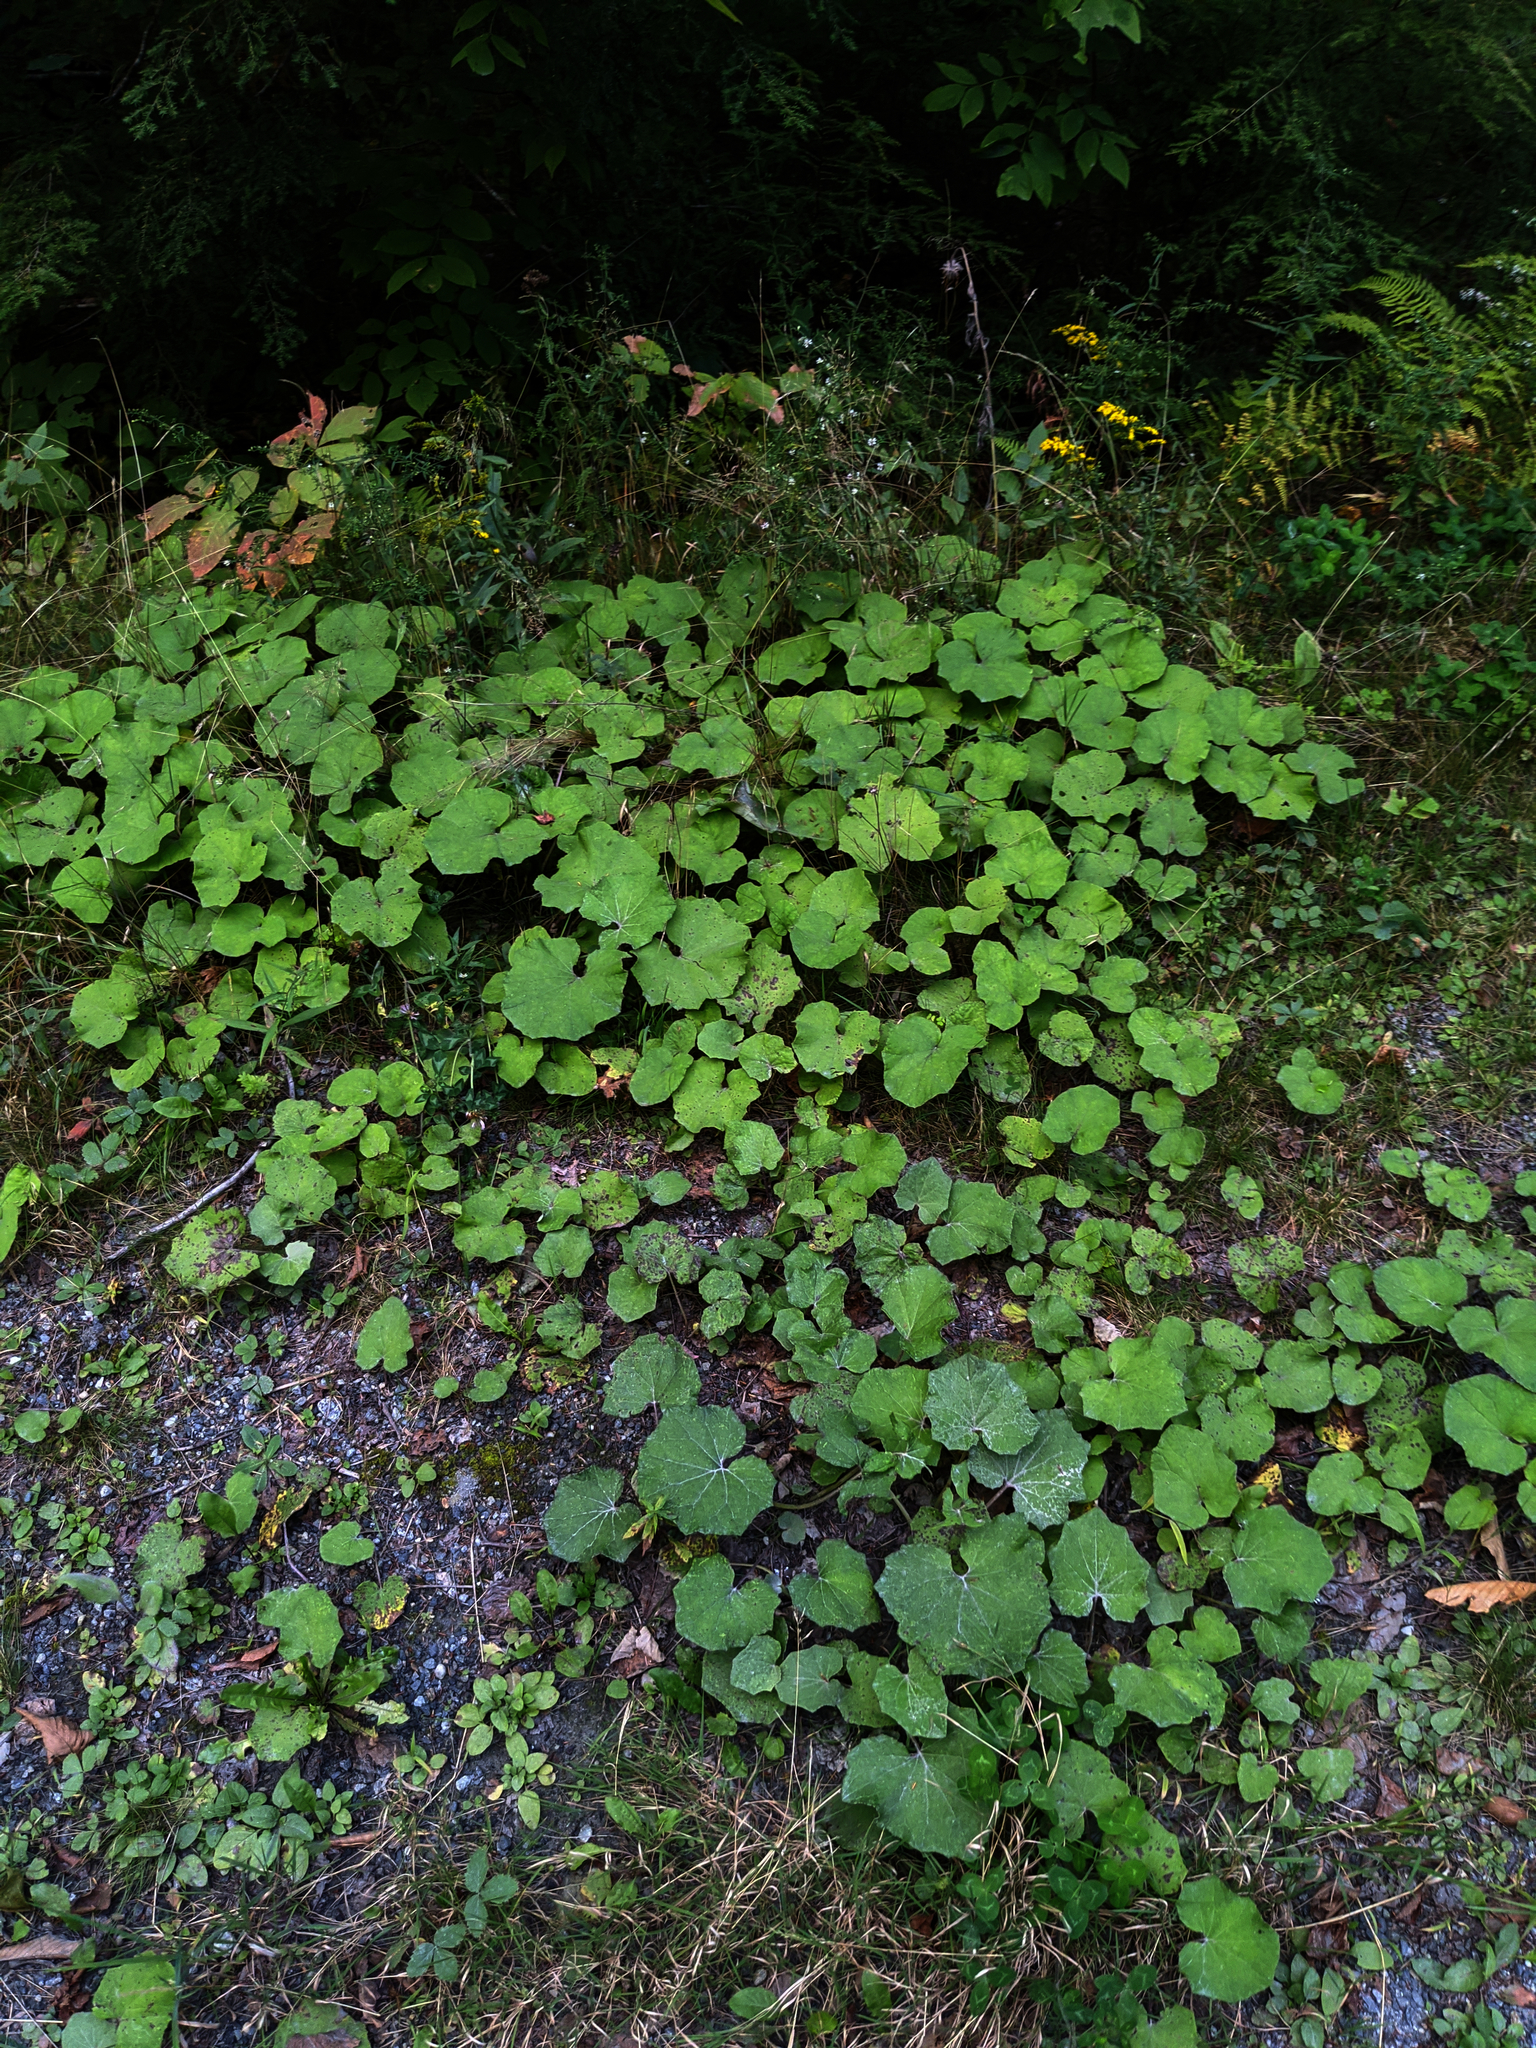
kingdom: Plantae
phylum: Tracheophyta
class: Magnoliopsida
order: Asterales
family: Asteraceae
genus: Tussilago
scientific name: Tussilago farfara
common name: Coltsfoot
